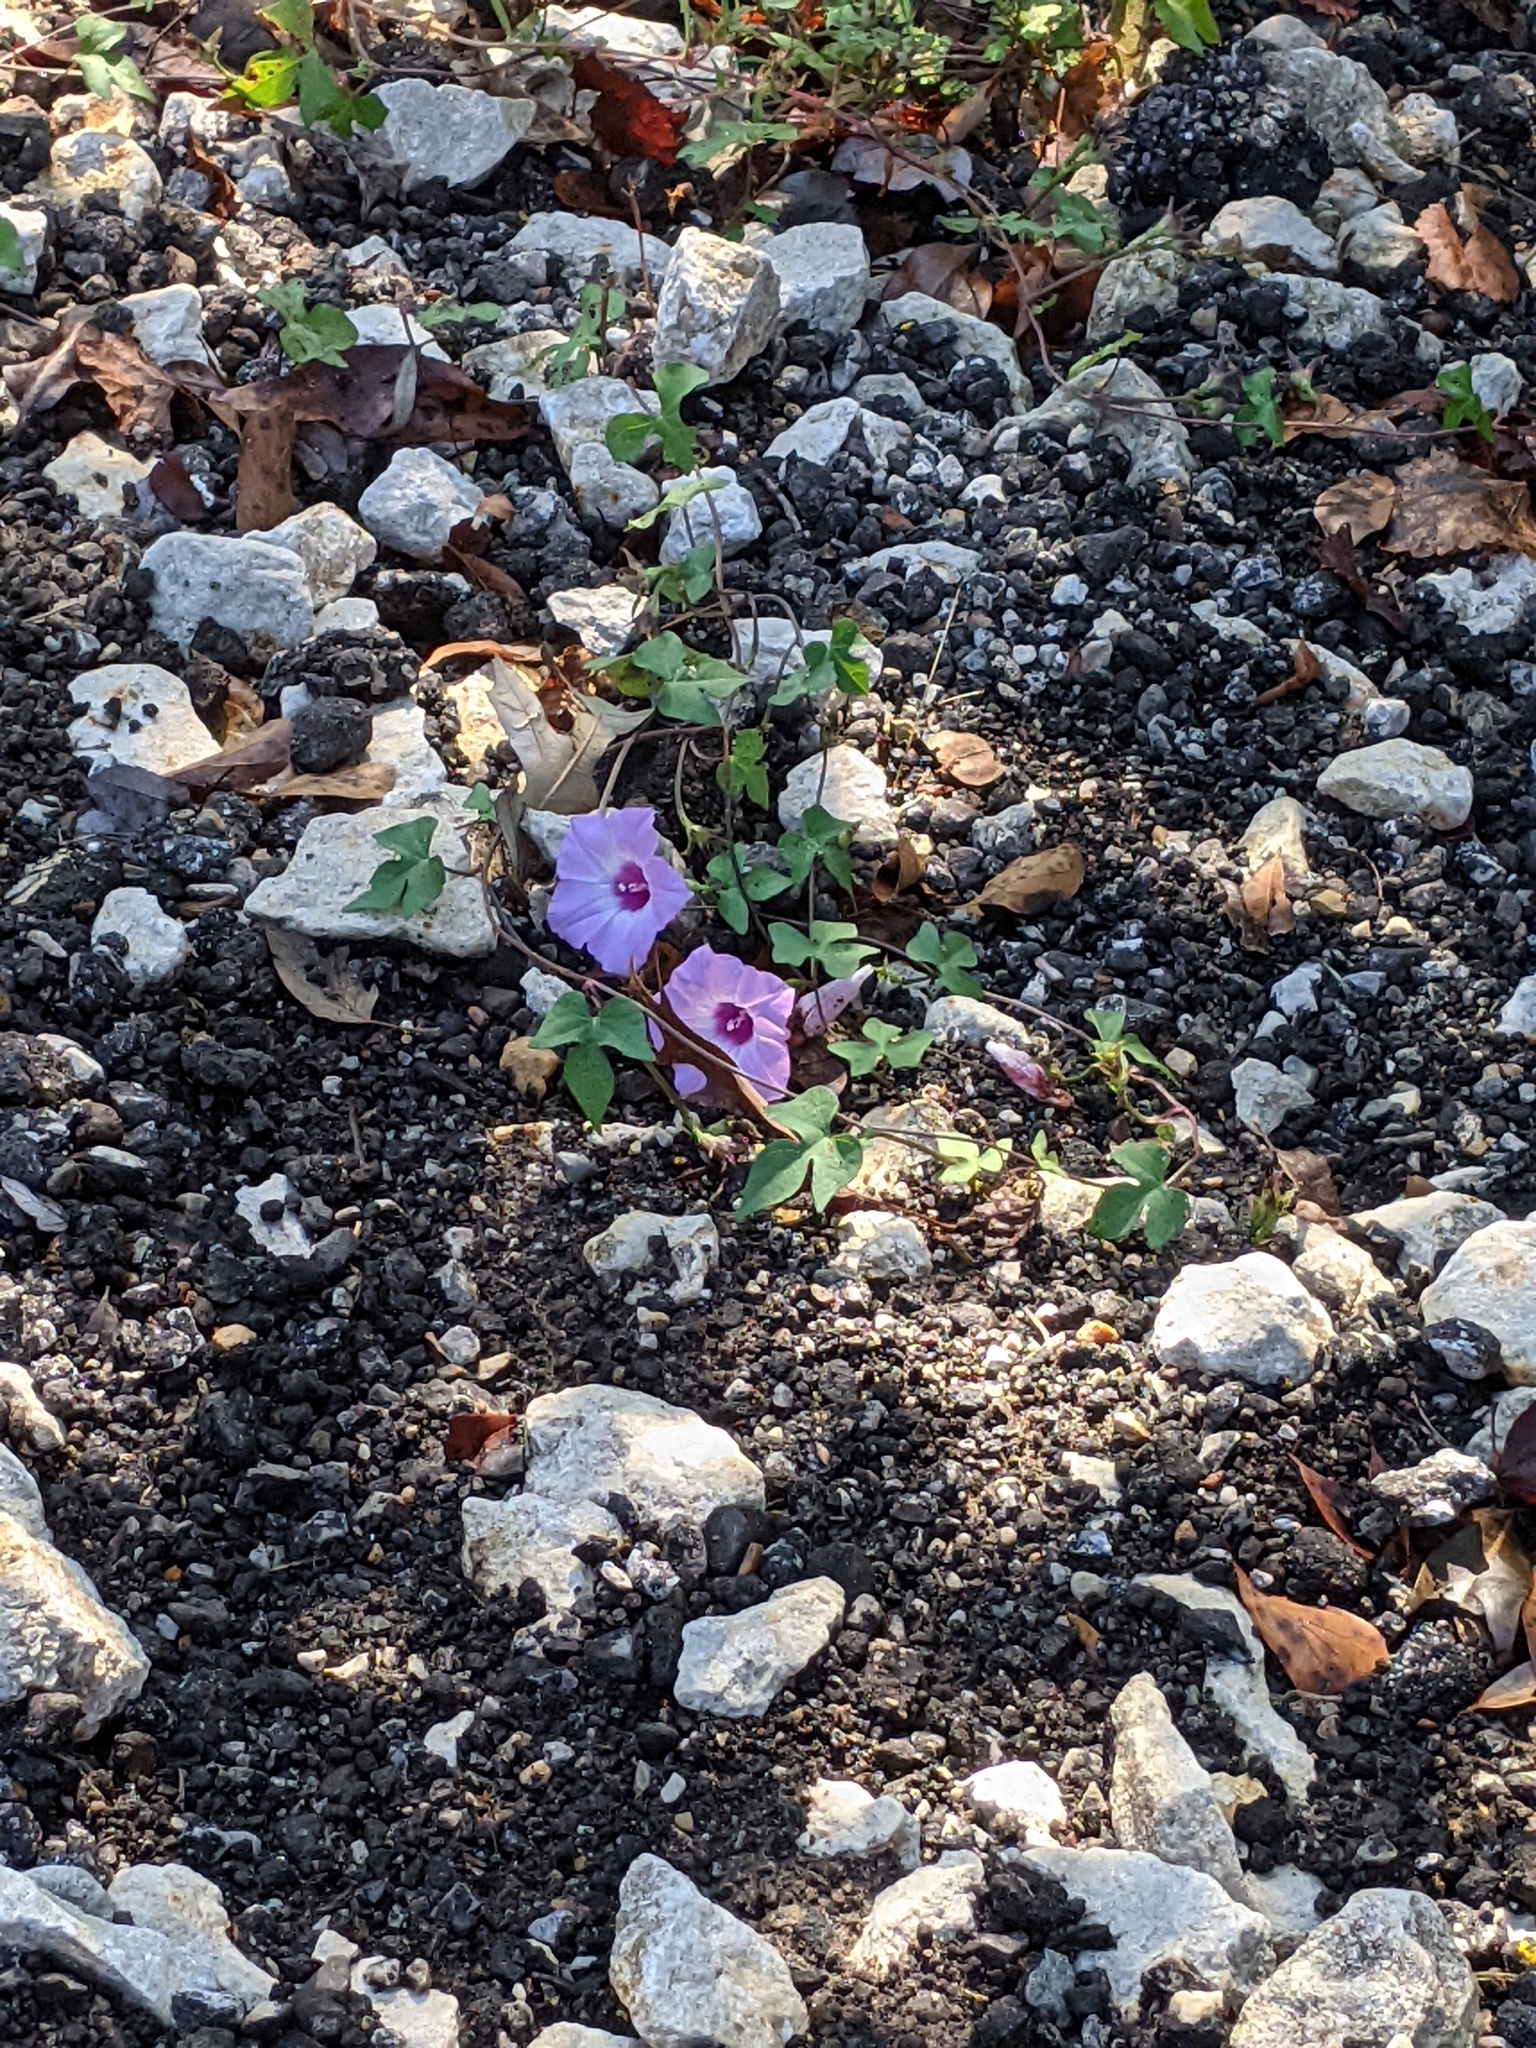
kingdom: Plantae
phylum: Tracheophyta
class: Magnoliopsida
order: Solanales
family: Convolvulaceae
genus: Ipomoea
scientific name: Ipomoea cordatotriloba
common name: Cotton morning glory
